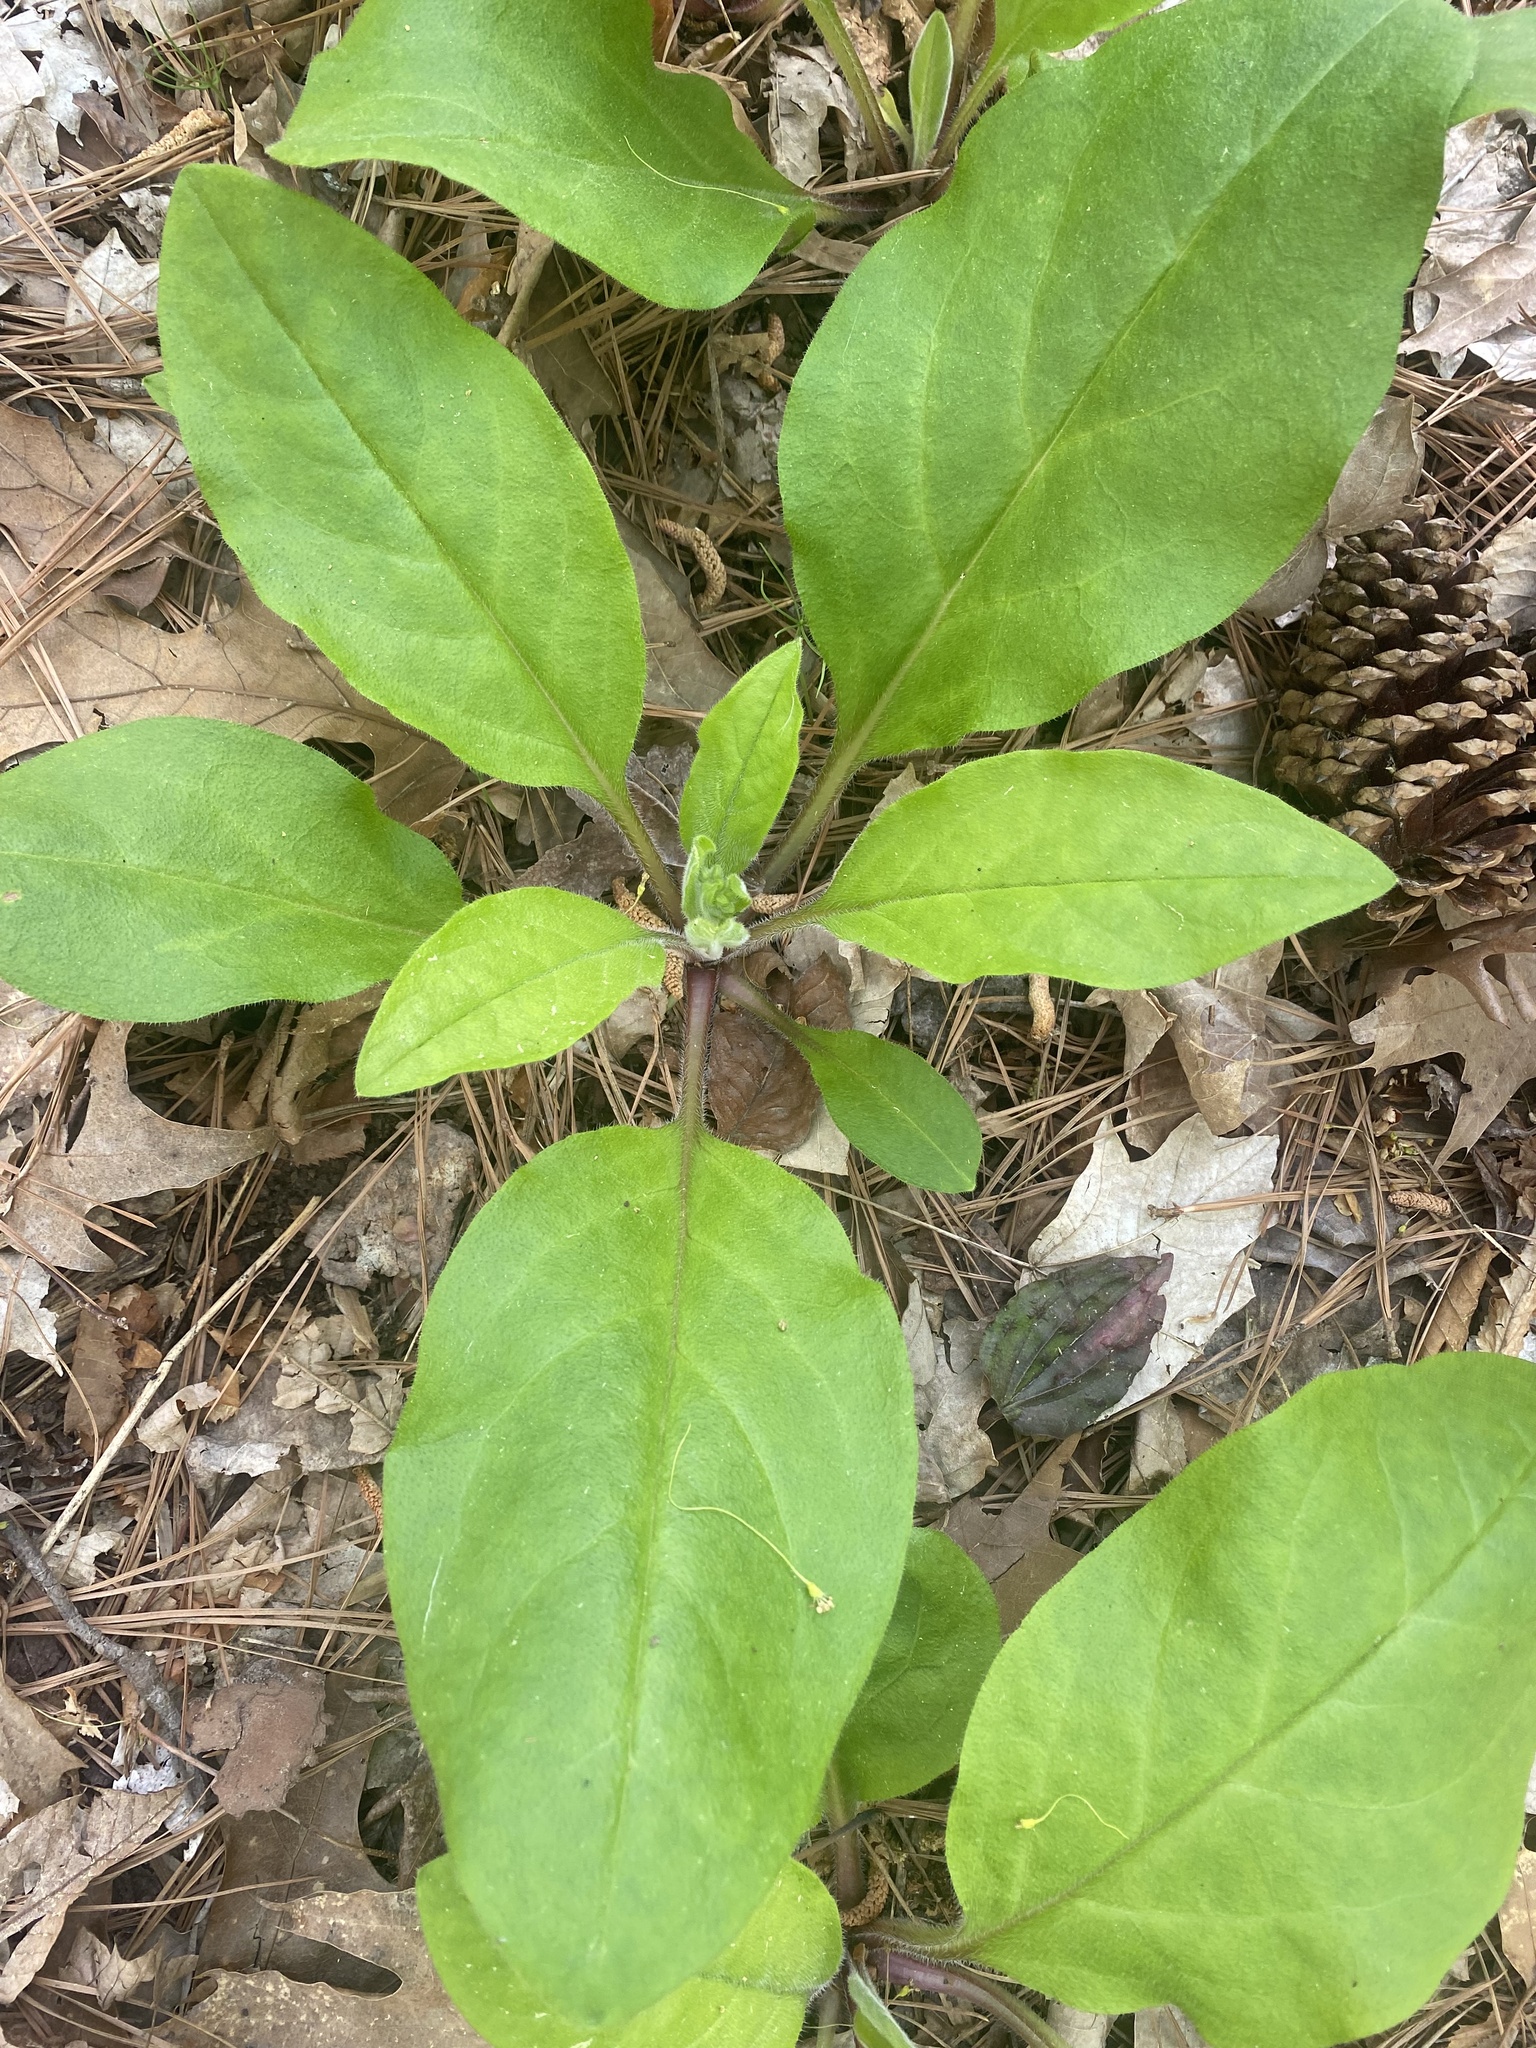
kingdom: Plantae
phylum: Tracheophyta
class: Magnoliopsida
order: Boraginales
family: Boraginaceae
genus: Andersonglossum
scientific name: Andersonglossum virginianum
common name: Wild comfrey
